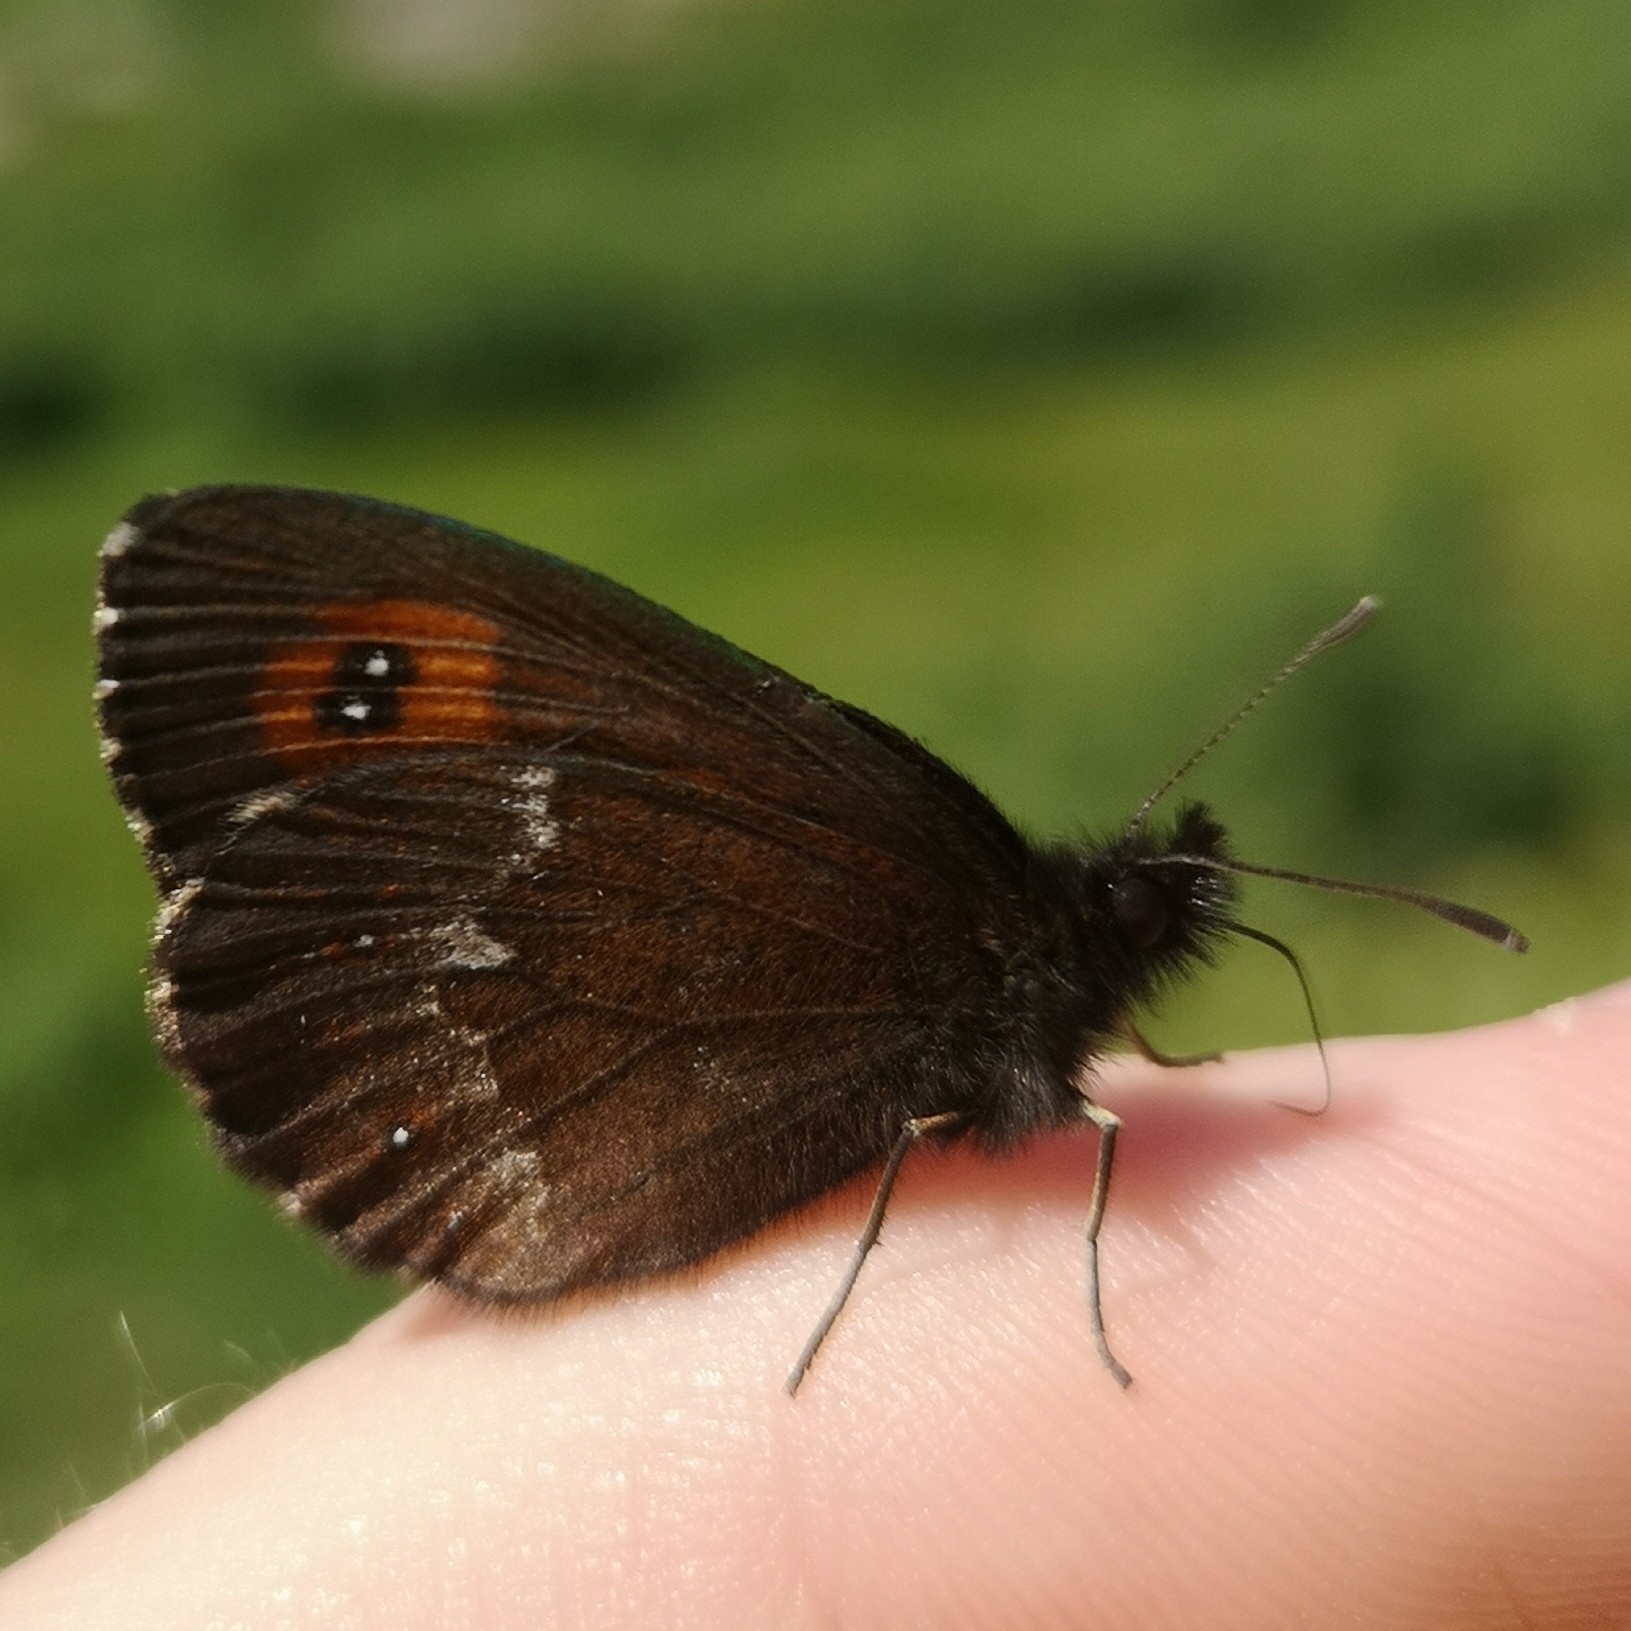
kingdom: Animalia
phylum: Arthropoda
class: Insecta
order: Lepidoptera
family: Nymphalidae
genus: Erebia
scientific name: Erebia euryale
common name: Large ringlet
